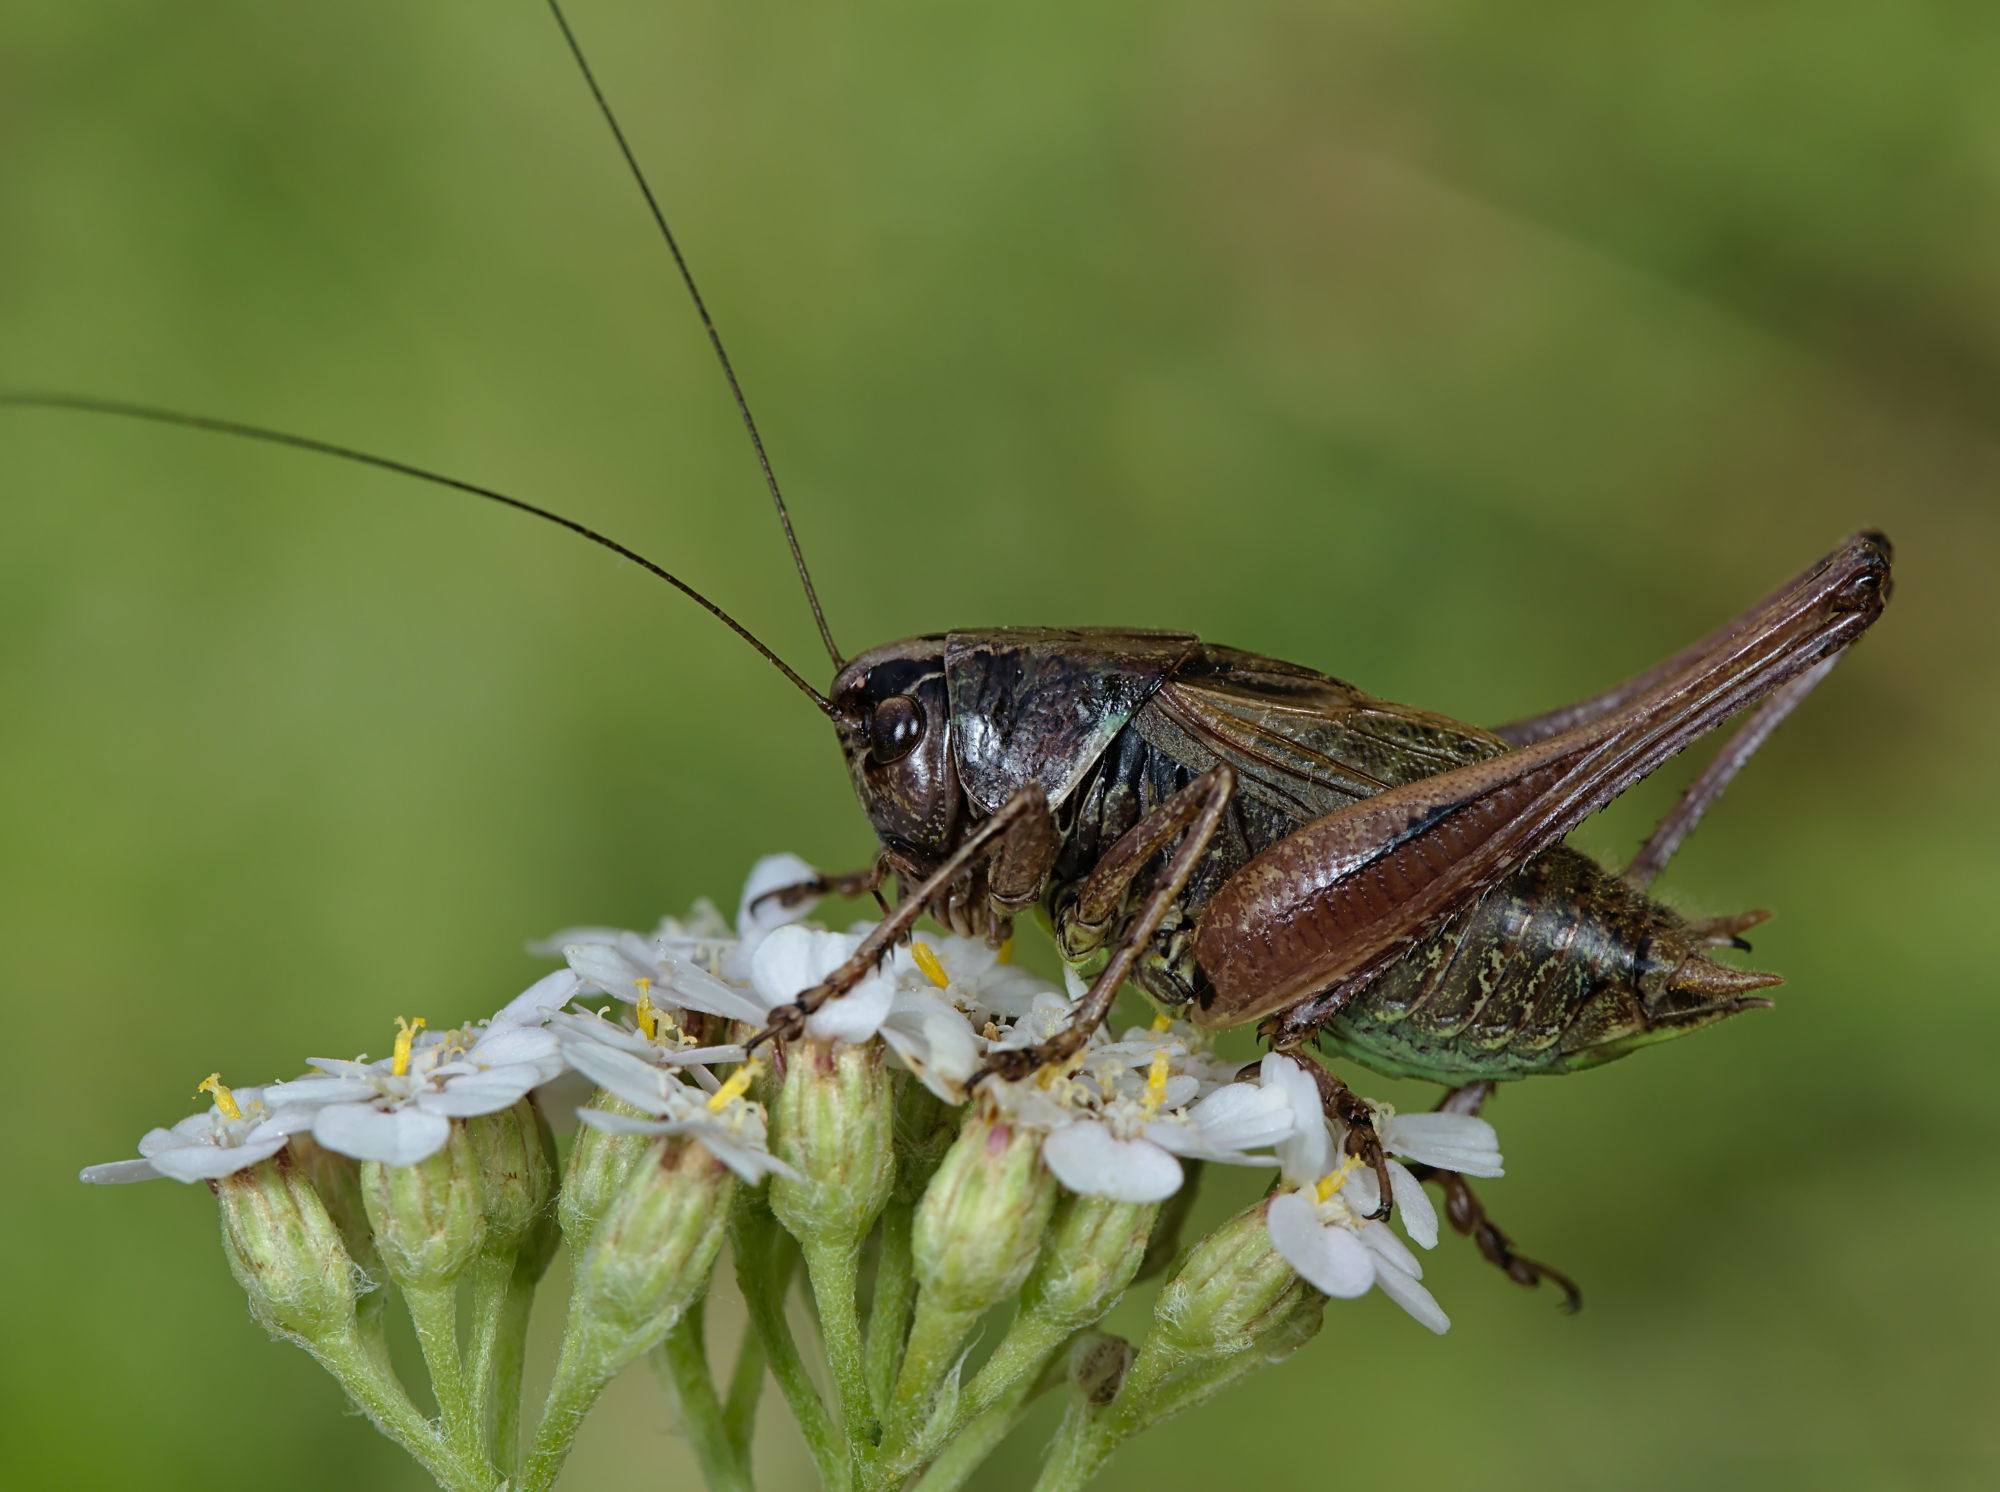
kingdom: Animalia
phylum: Arthropoda
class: Insecta
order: Orthoptera
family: Tettigoniidae
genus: Metrioptera
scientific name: Metrioptera saussuriana
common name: Purple meadow bush-cricket
